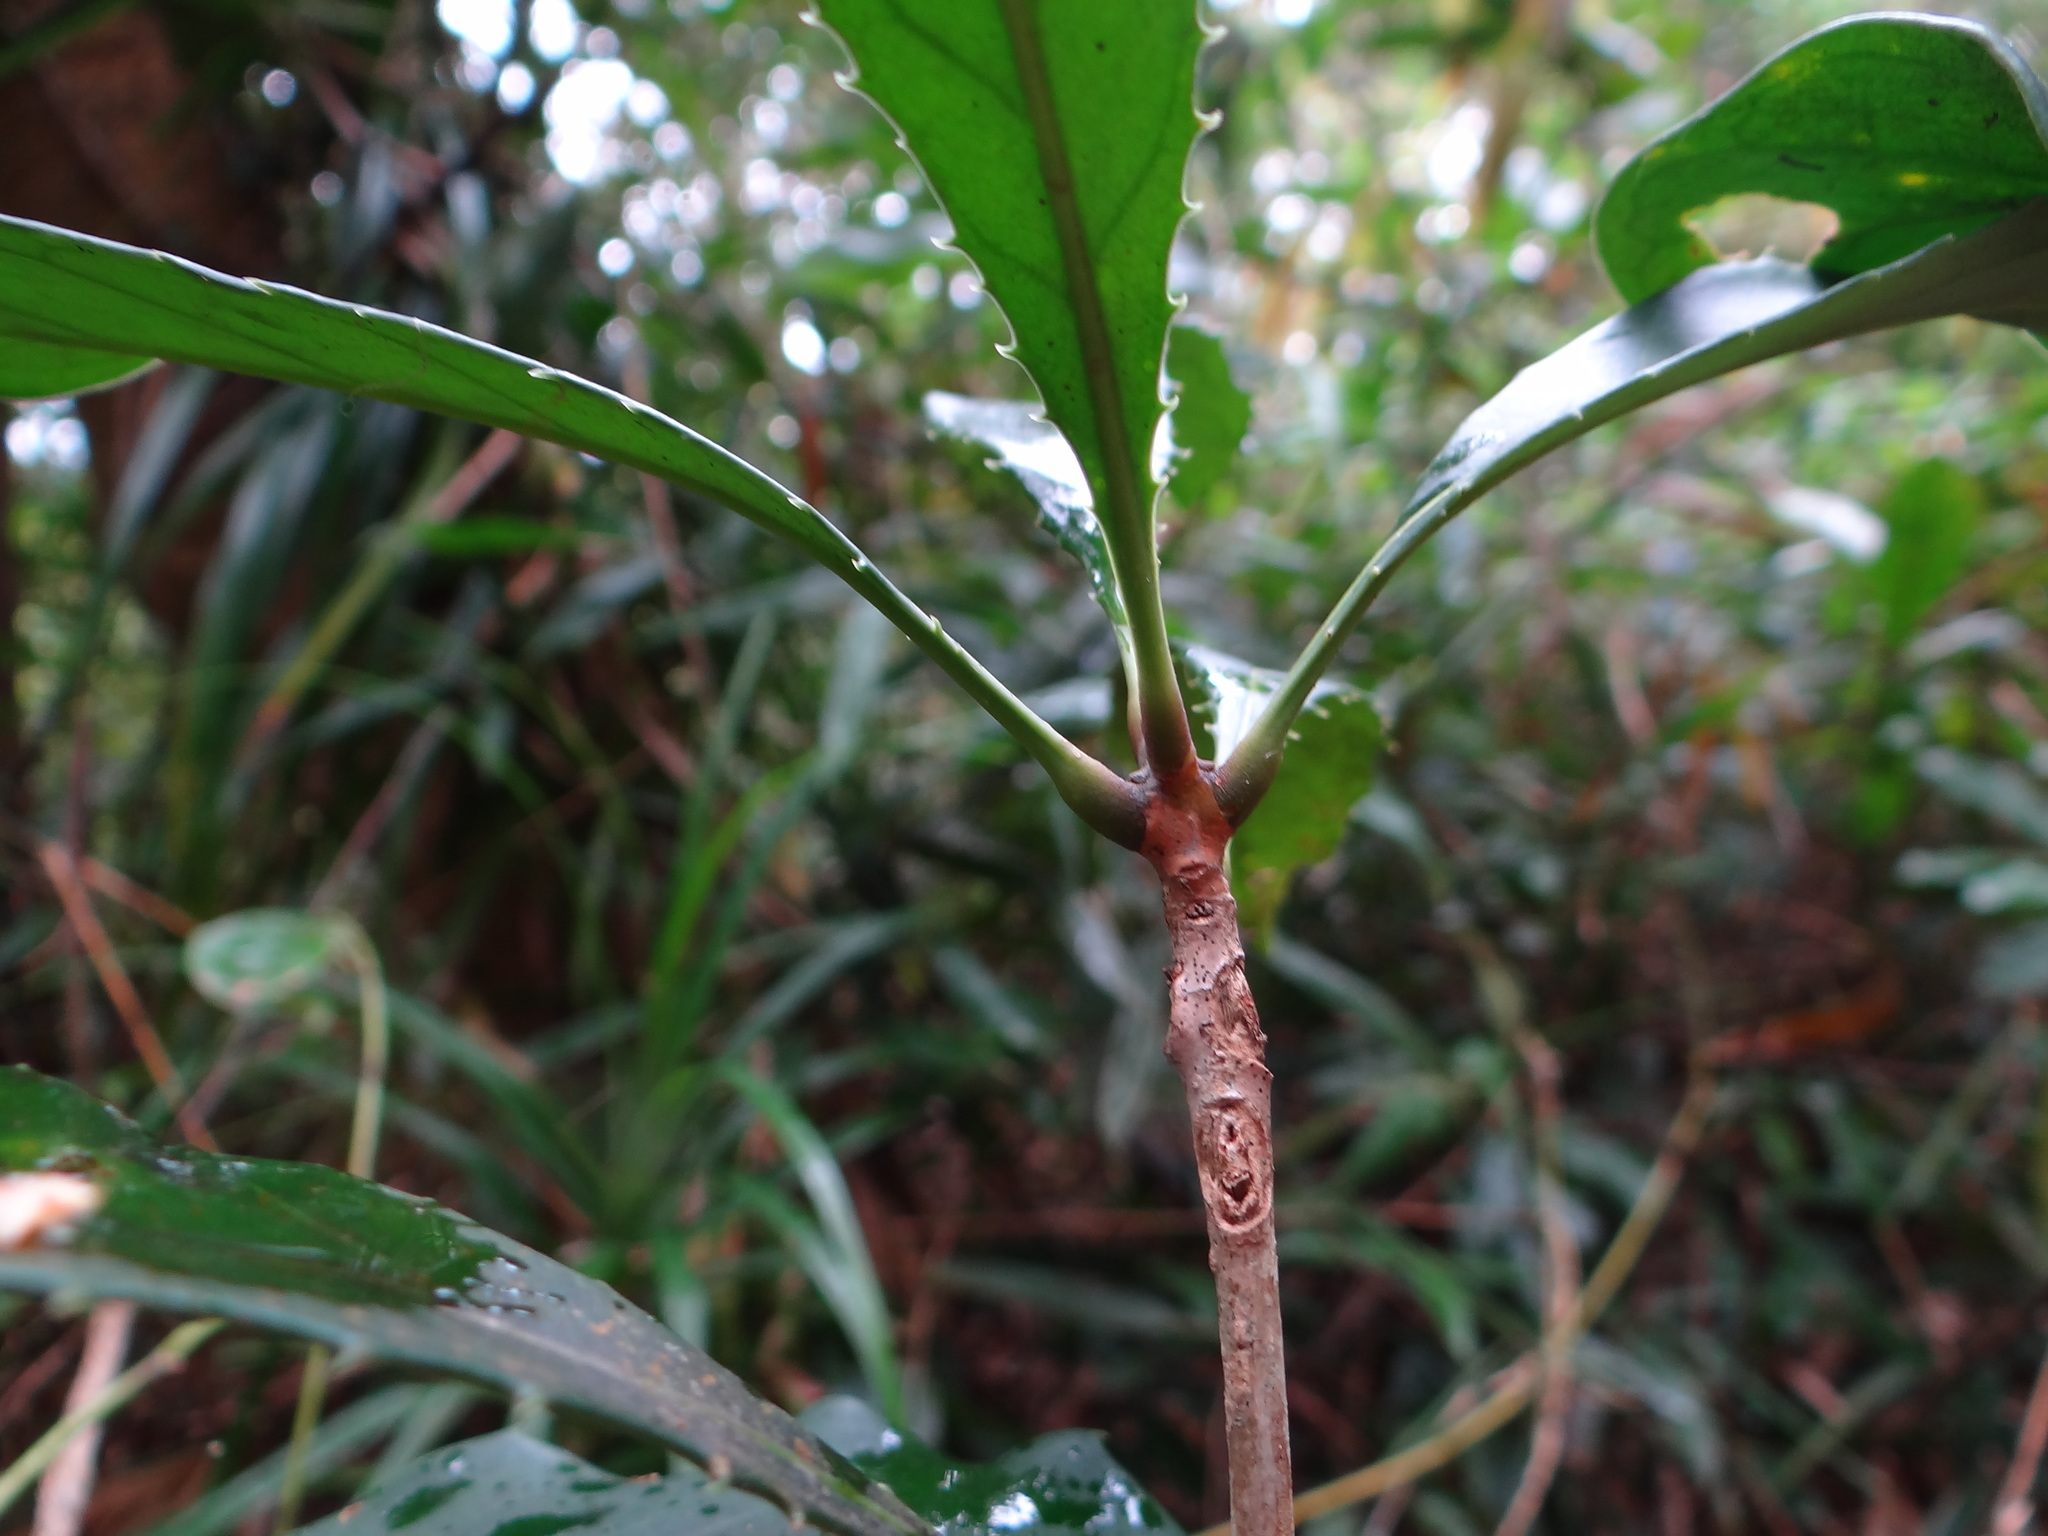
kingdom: Plantae
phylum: Tracheophyta
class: Magnoliopsida
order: Lamiales
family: Oleaceae
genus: Chengiodendron
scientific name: Chengiodendron marginatum
